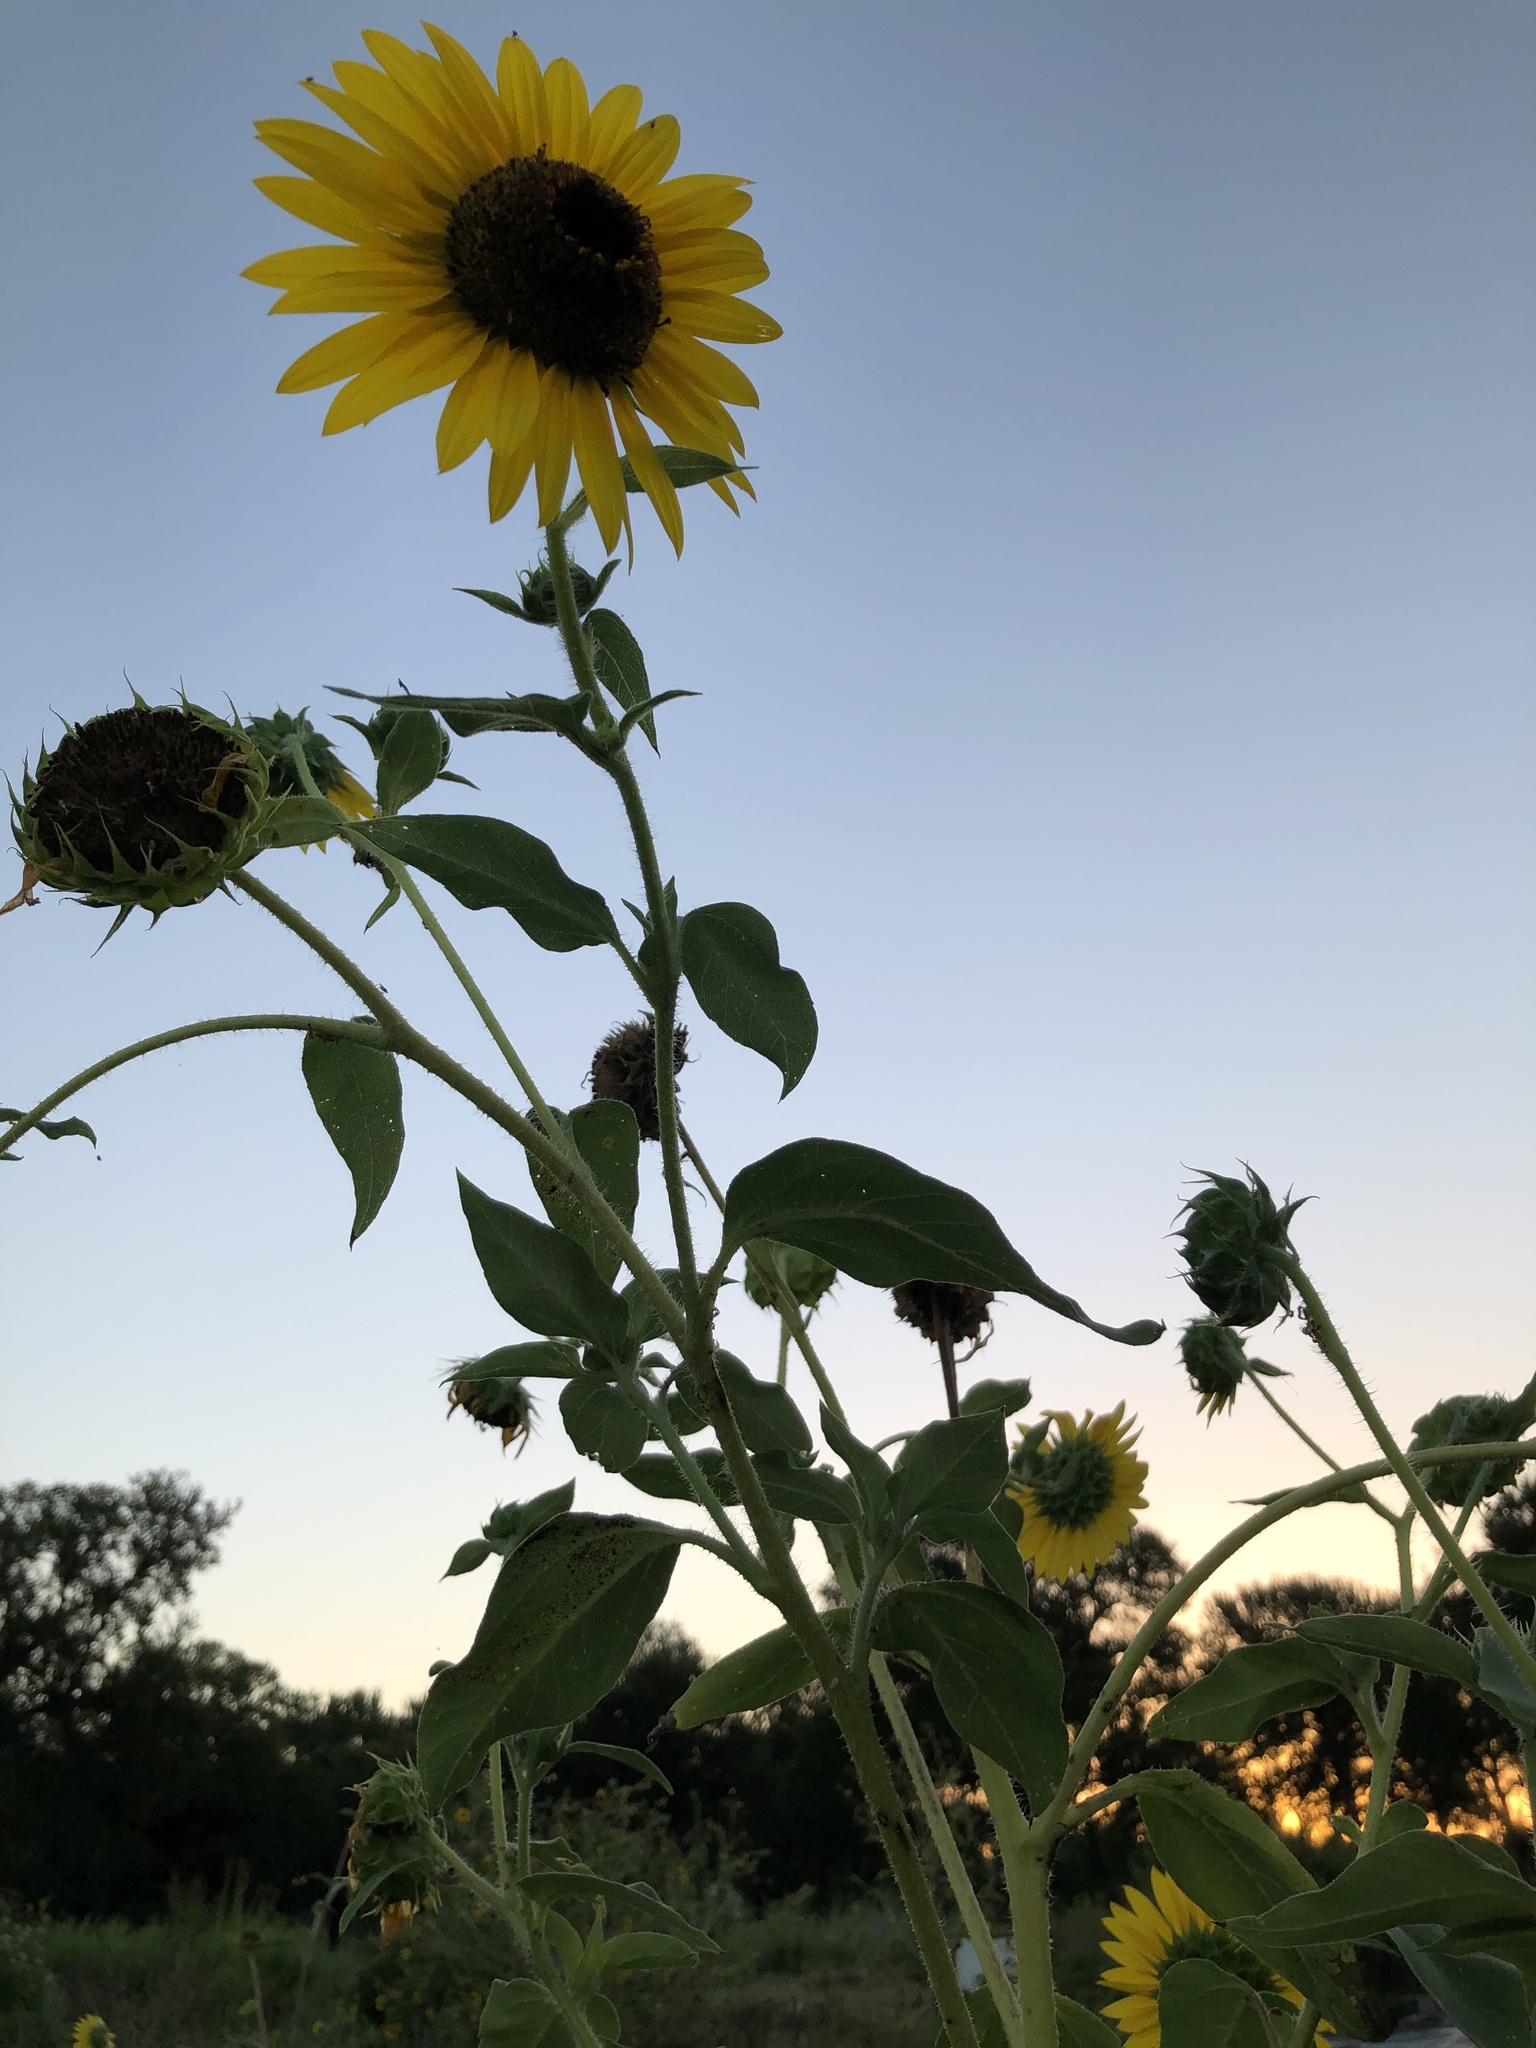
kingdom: Plantae
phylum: Tracheophyta
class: Magnoliopsida
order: Asterales
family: Asteraceae
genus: Helianthus
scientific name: Helianthus annuus
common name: Sunflower
